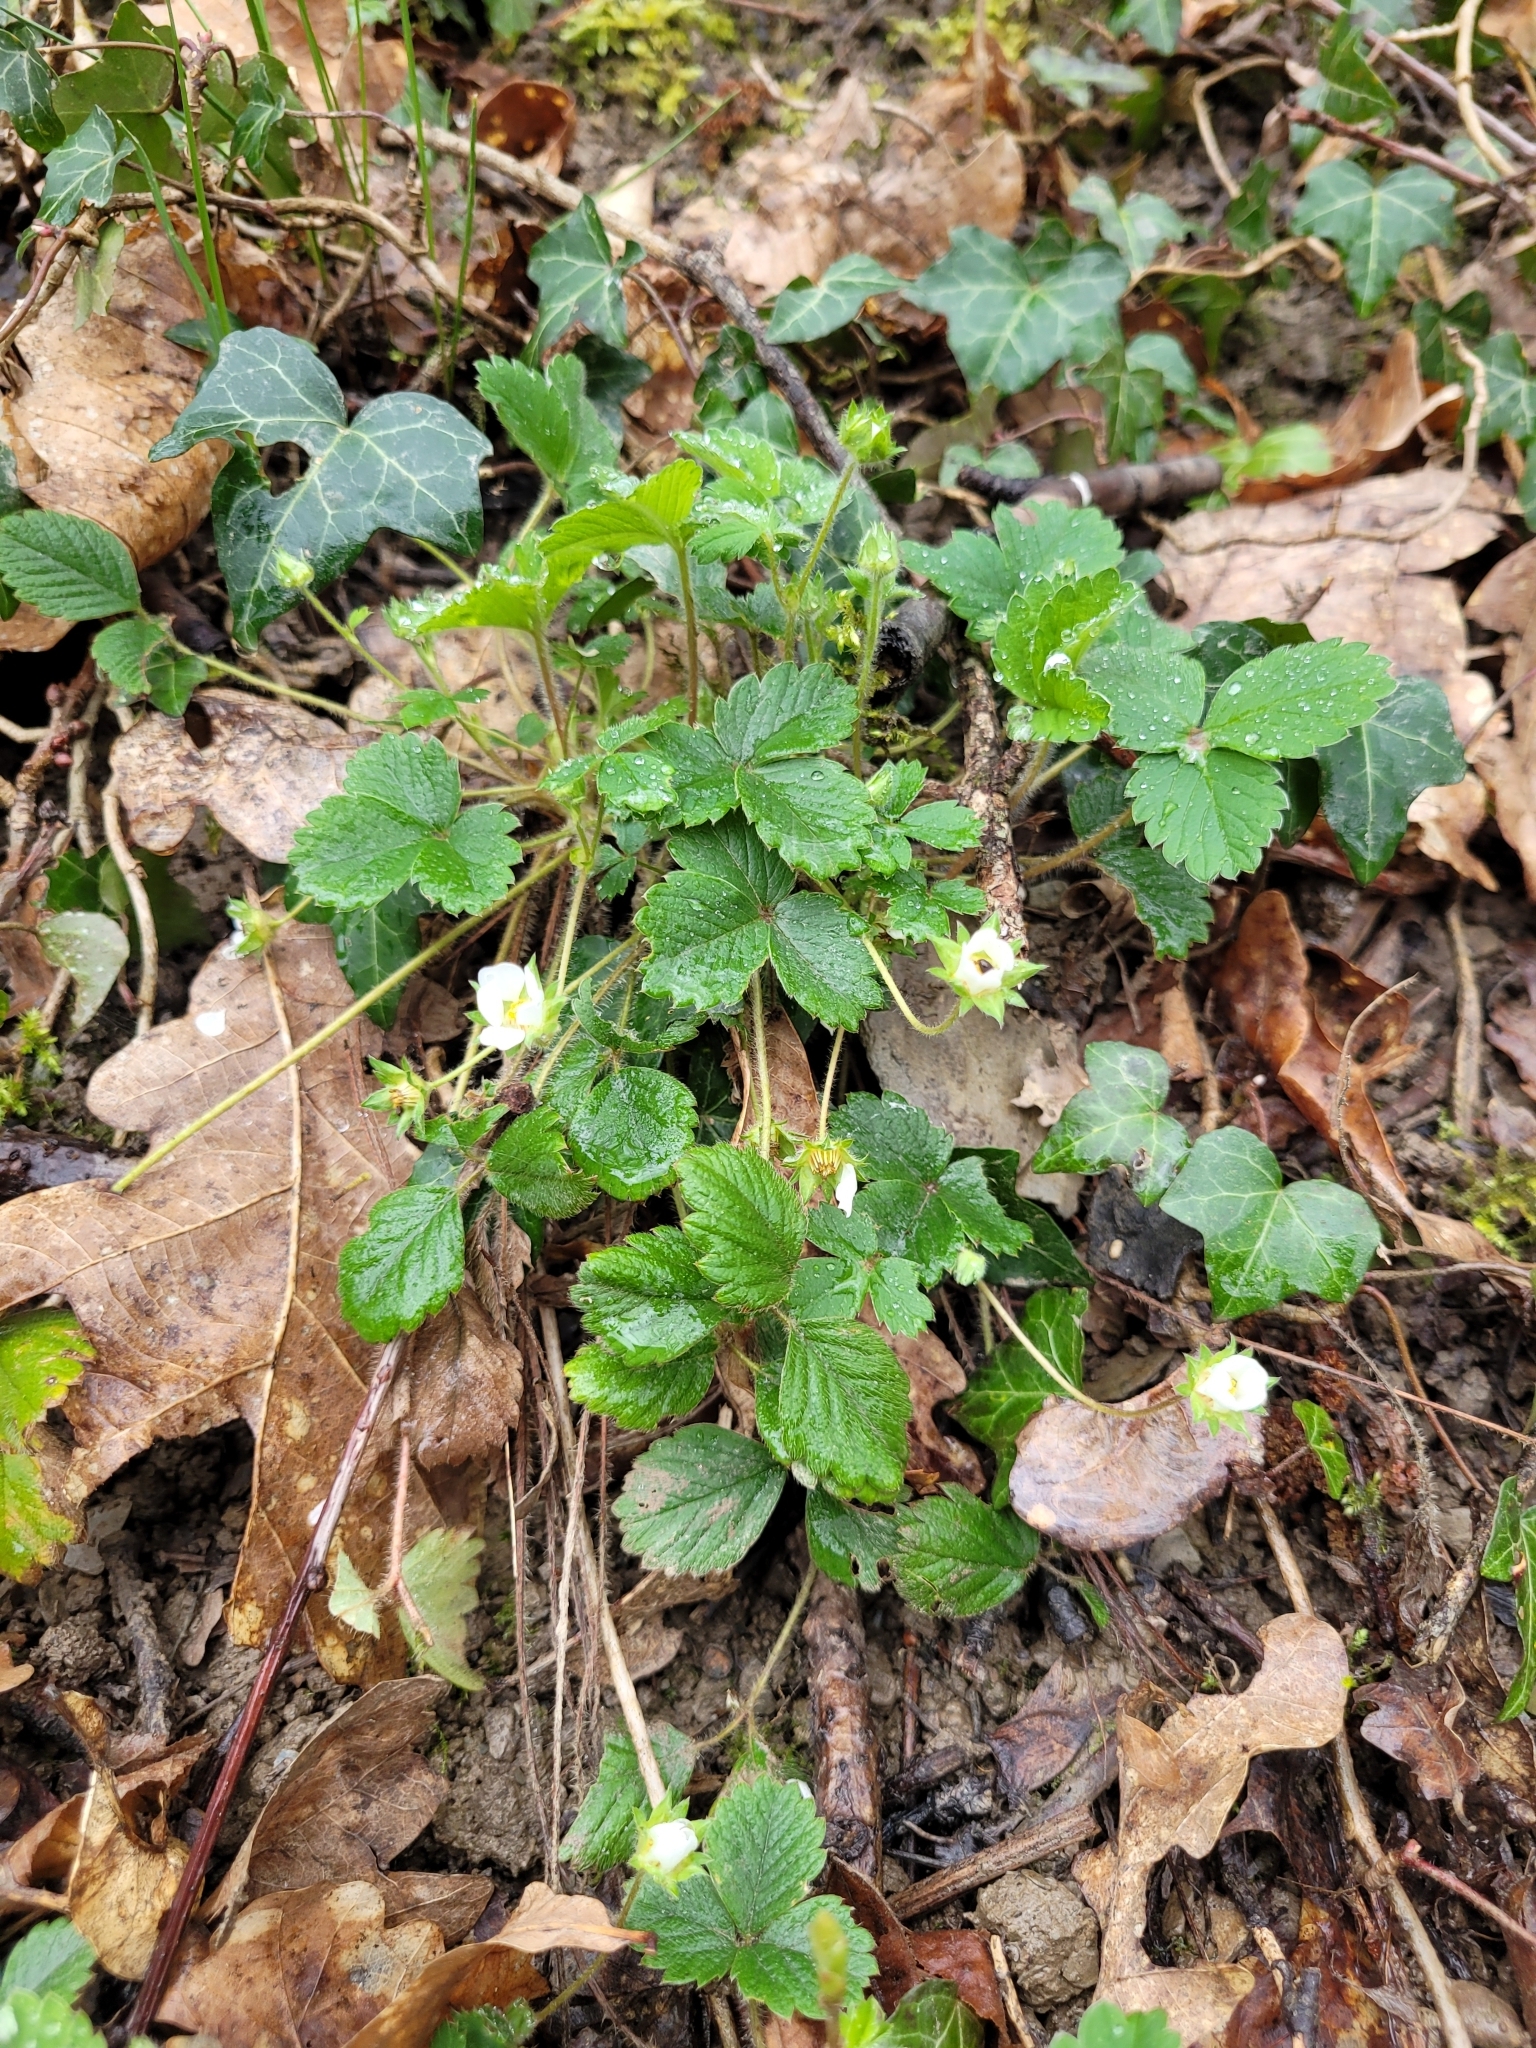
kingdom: Plantae
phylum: Tracheophyta
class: Magnoliopsida
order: Rosales
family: Rosaceae
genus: Potentilla
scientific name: Potentilla sterilis
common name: Barren strawberry
